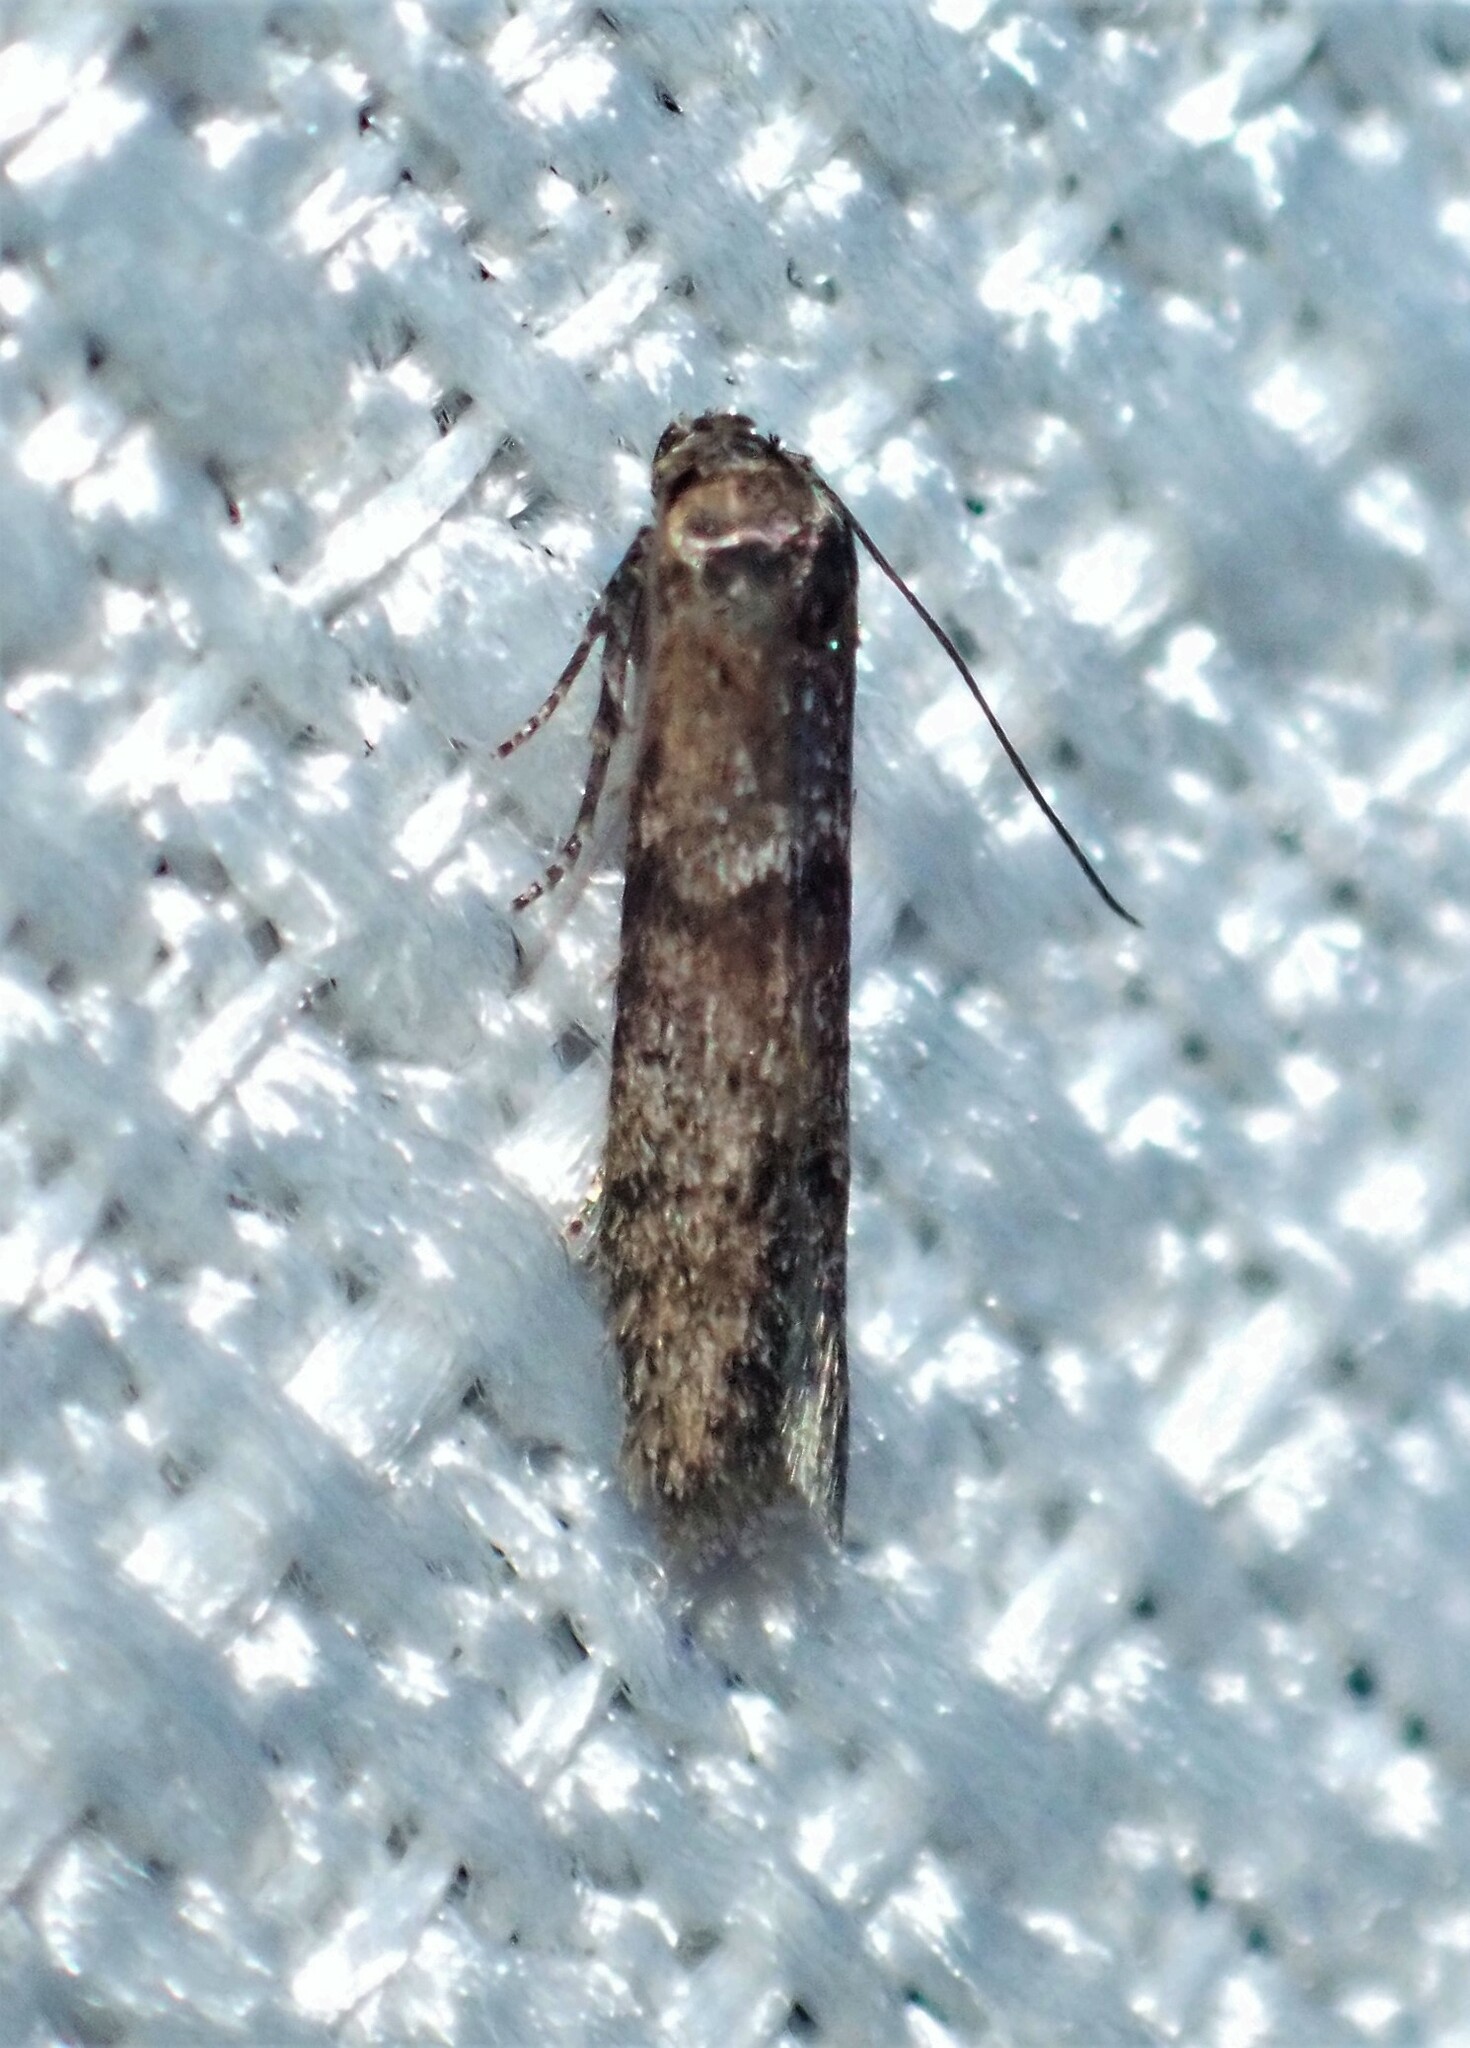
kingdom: Animalia
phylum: Arthropoda
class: Insecta
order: Lepidoptera
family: Blastobasidae
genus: Blastobasis
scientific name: Blastobasis maroccanella
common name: Blastobasid moth
